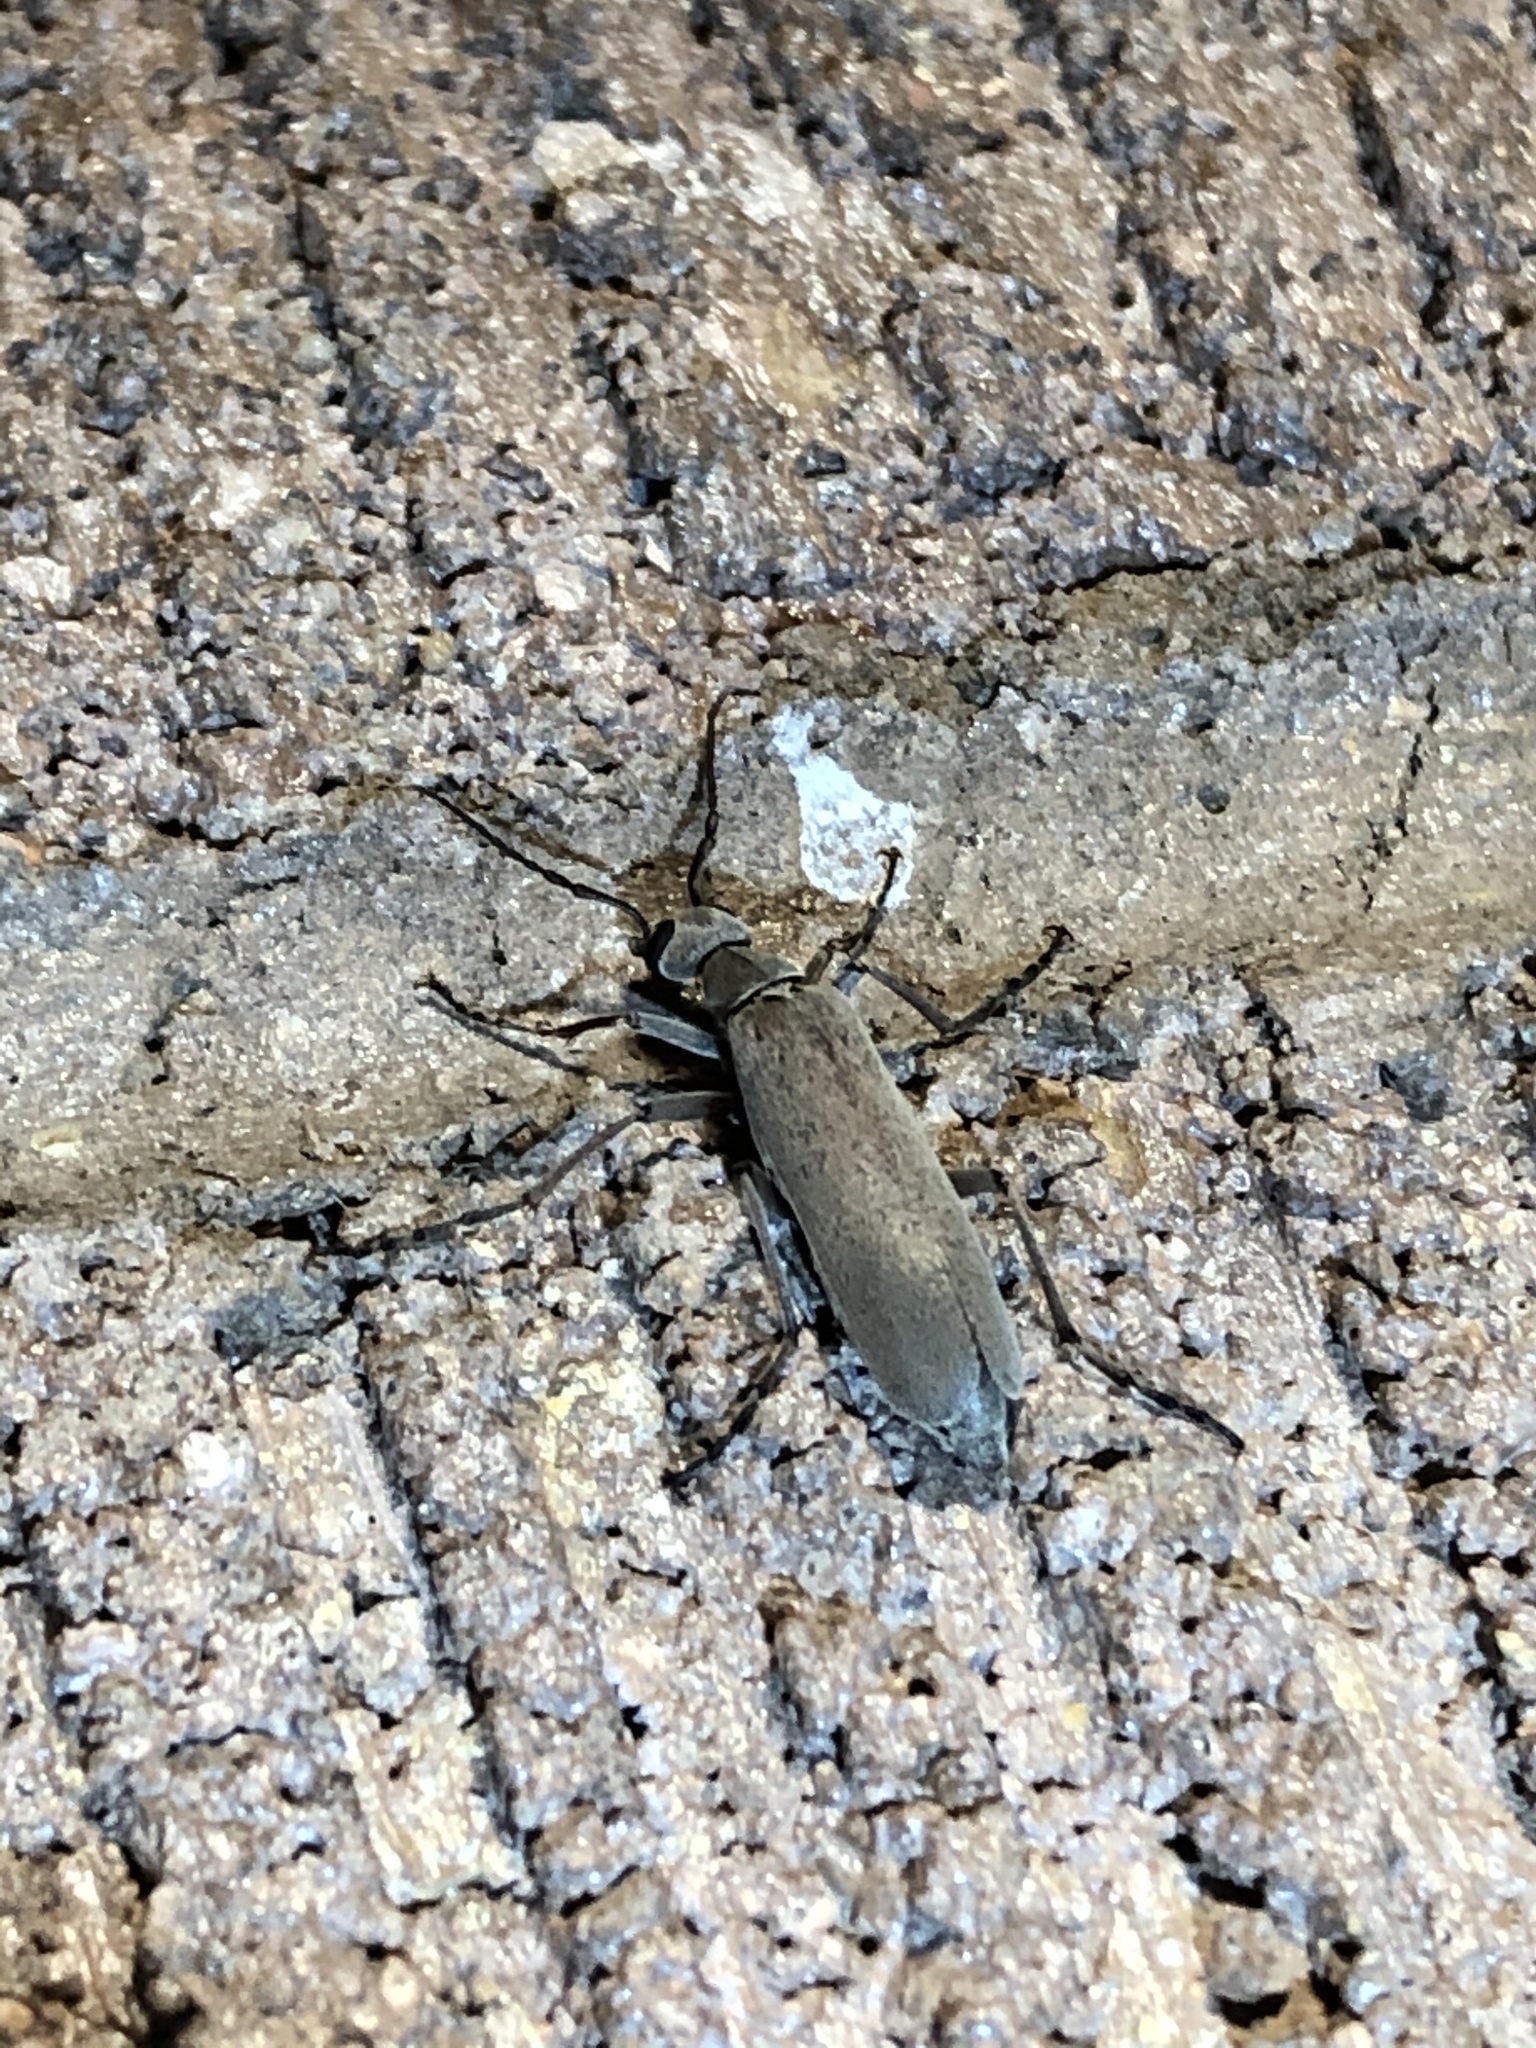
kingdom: Animalia
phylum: Arthropoda
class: Insecta
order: Coleoptera
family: Meloidae
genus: Epicauta
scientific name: Epicauta arizonica
